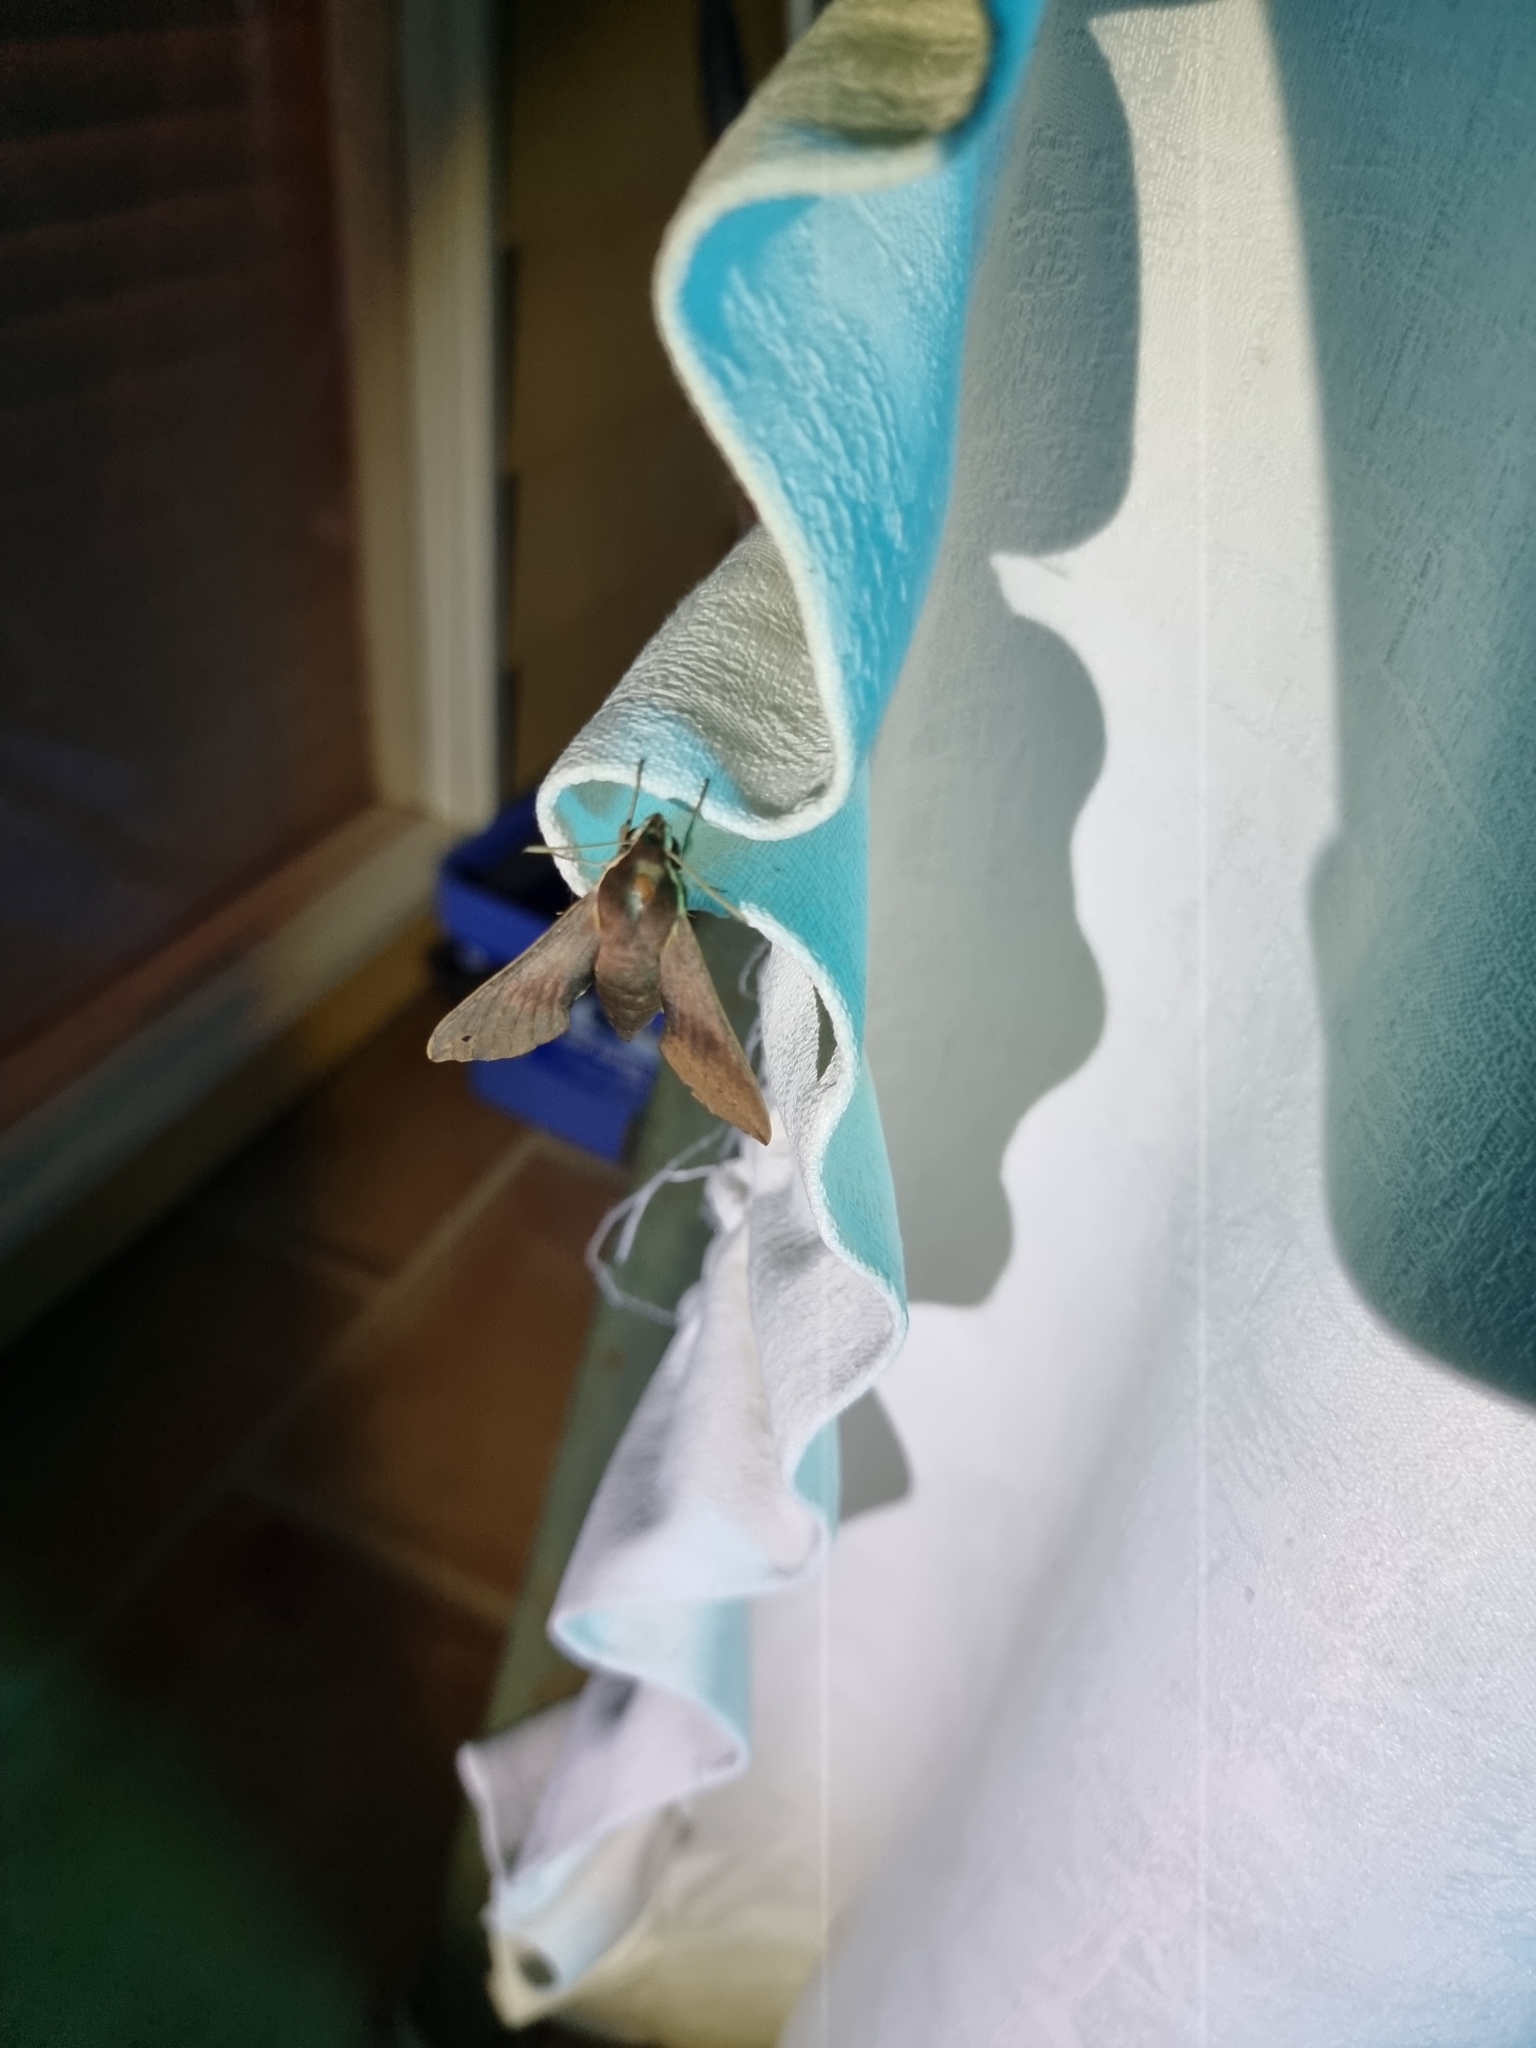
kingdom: Animalia
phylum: Arthropoda
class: Insecta
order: Lepidoptera
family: Sphingidae
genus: Hippotion
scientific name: Hippotion scrofa
